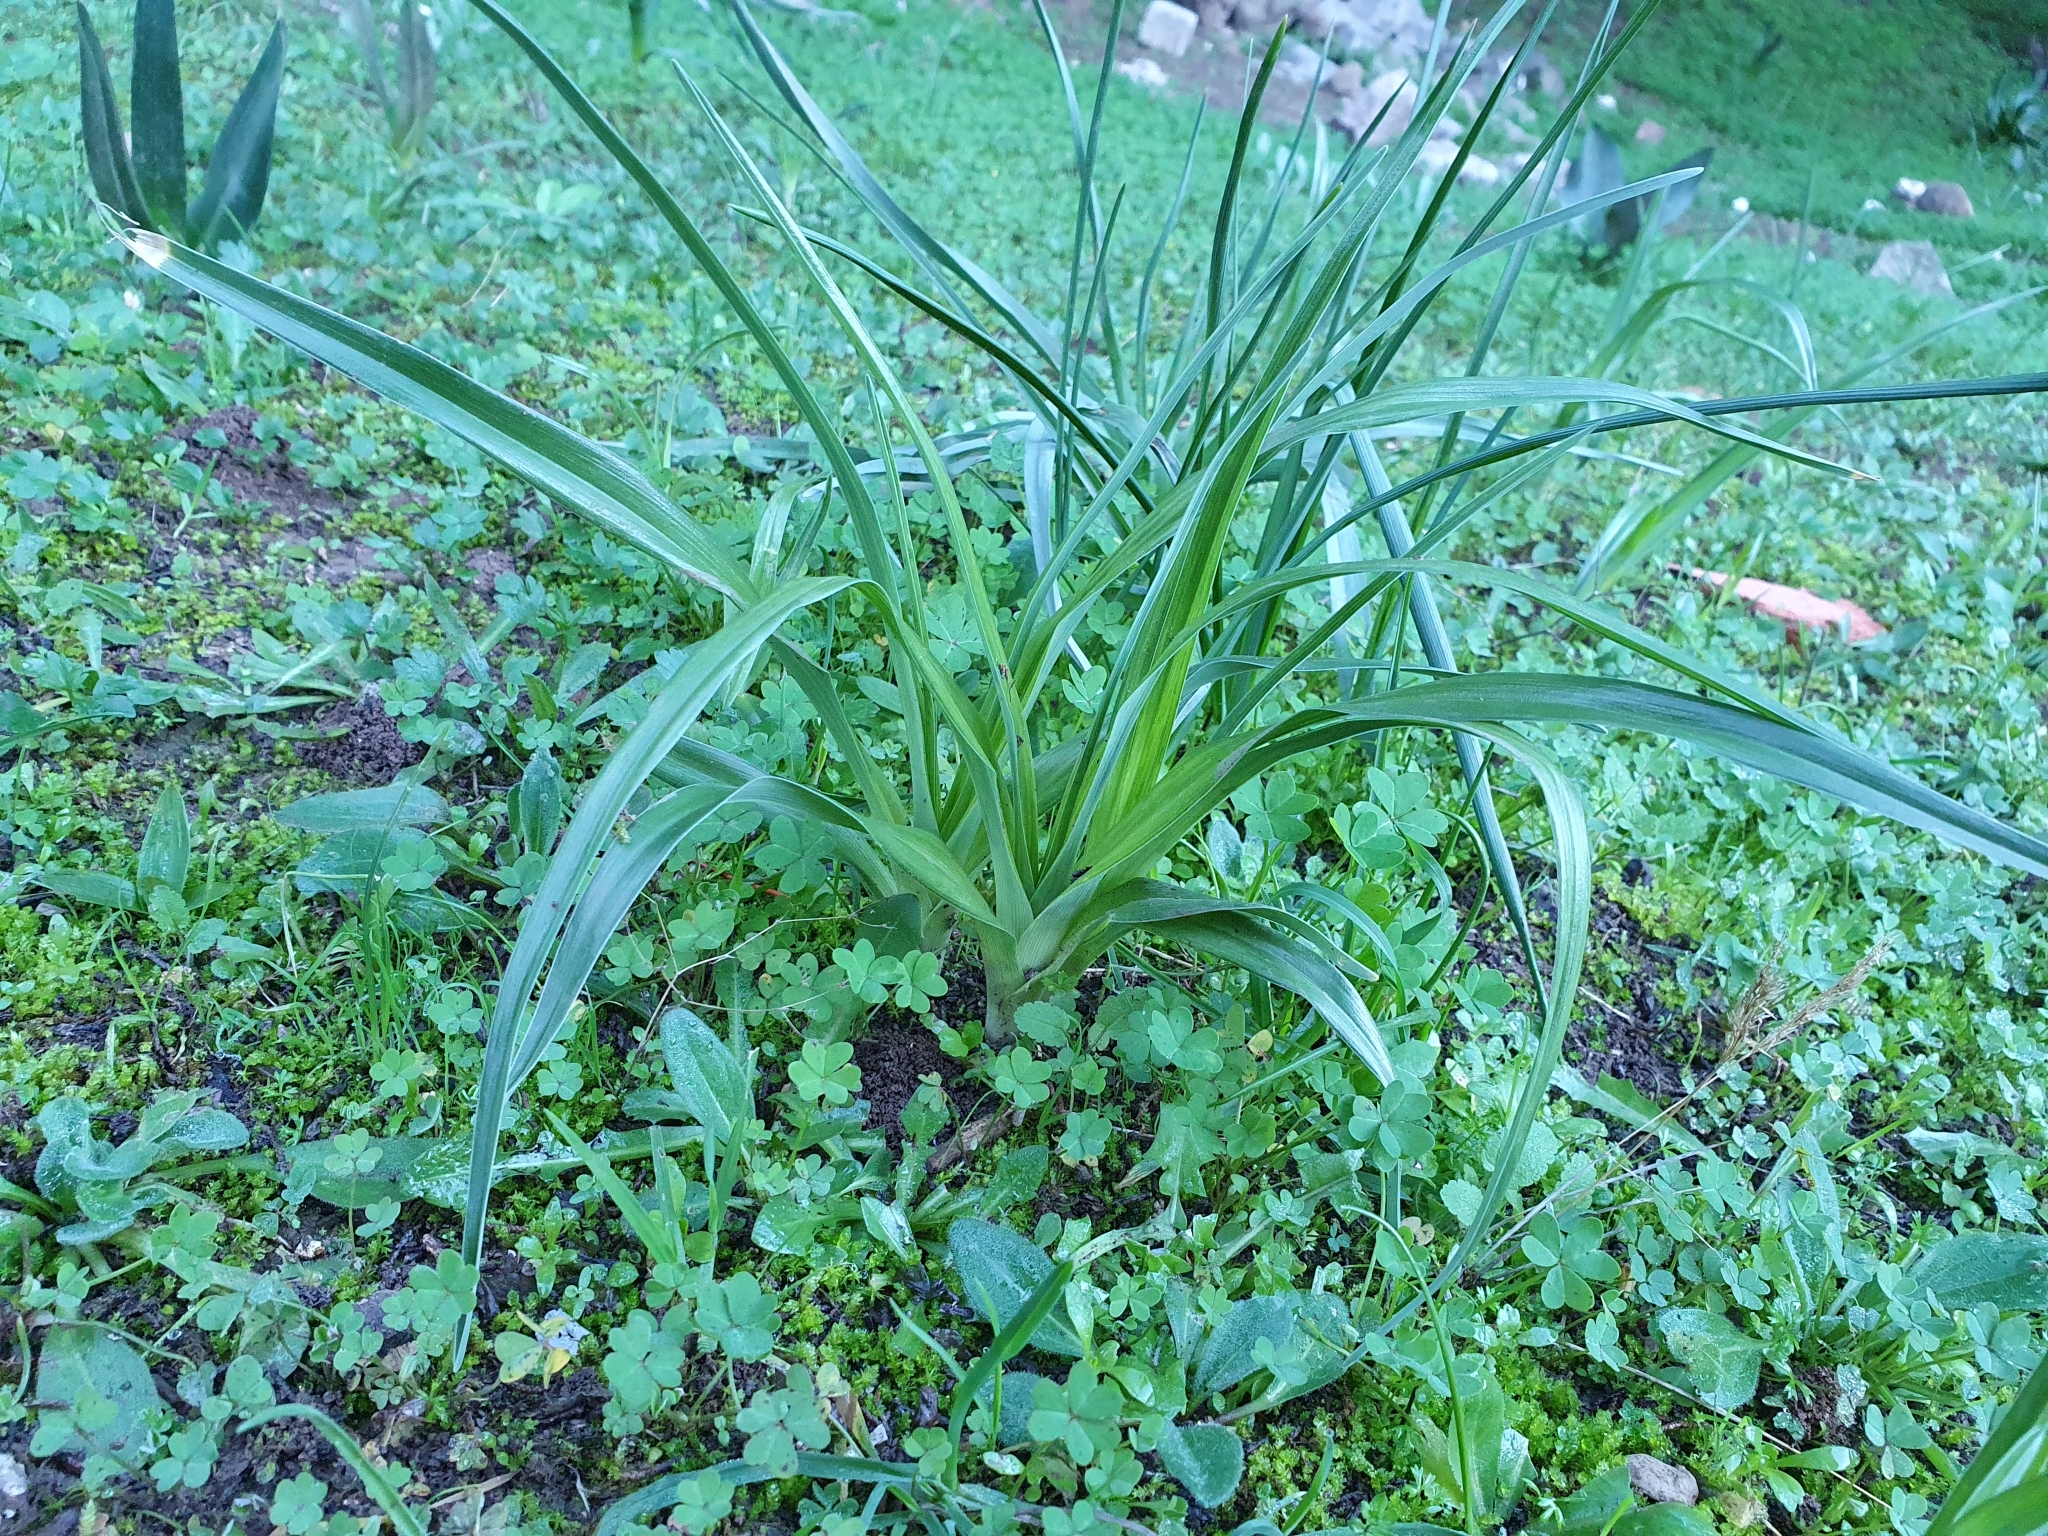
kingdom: Plantae
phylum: Tracheophyta
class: Liliopsida
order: Asparagales
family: Iridaceae
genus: Iris
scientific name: Iris planifolia
